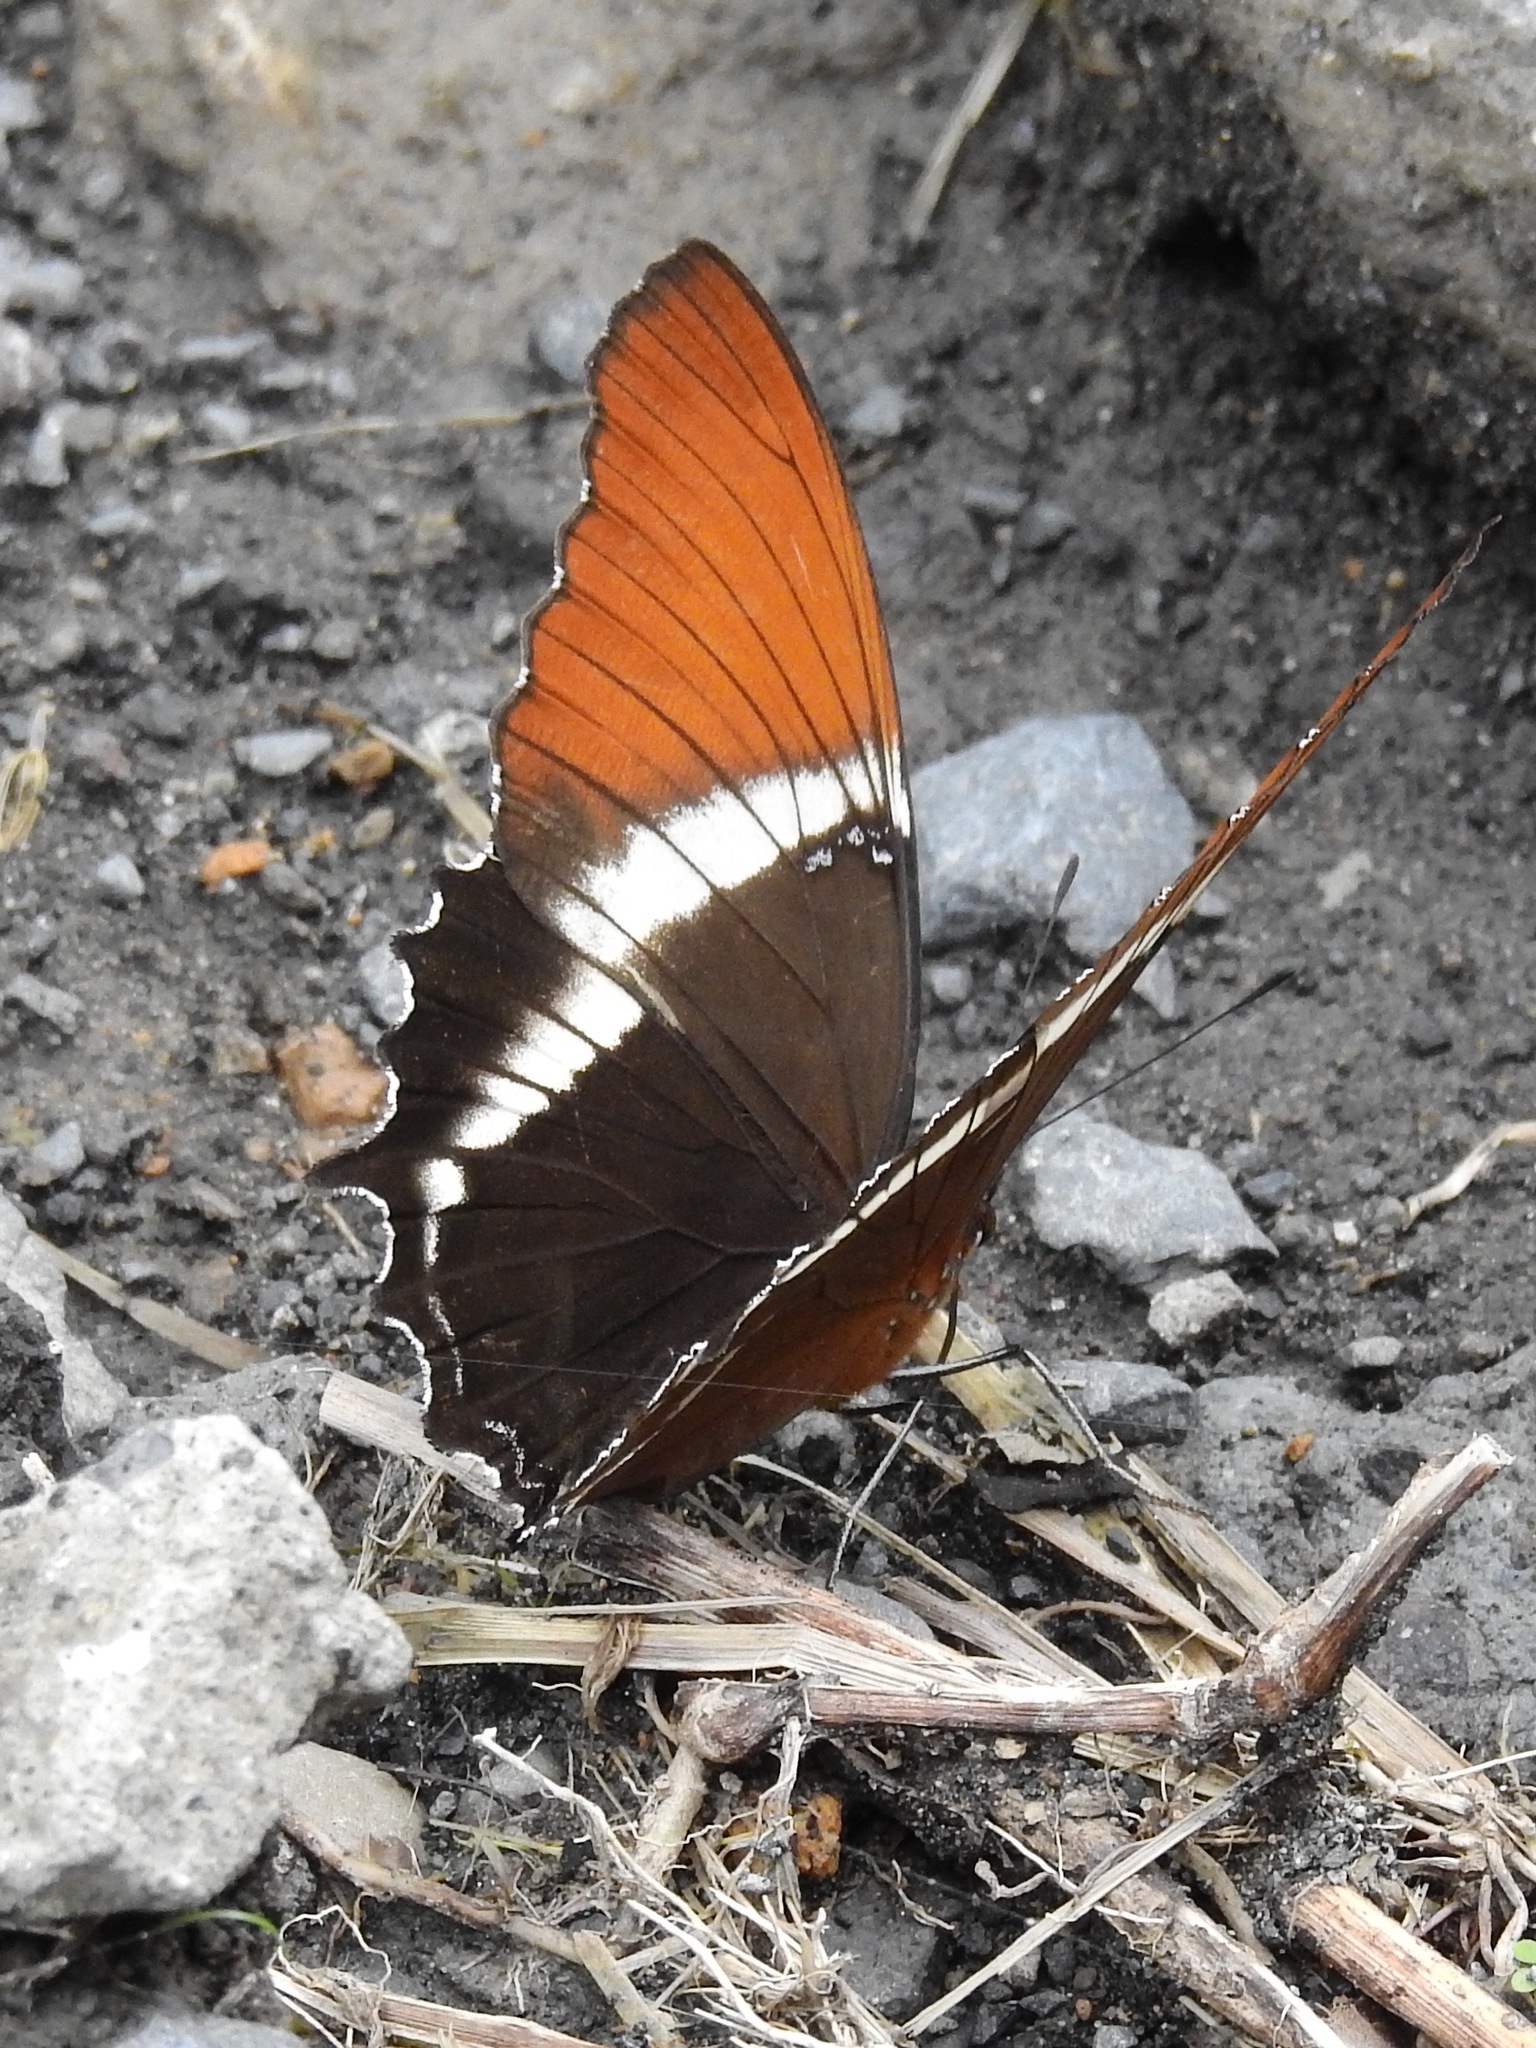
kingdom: Animalia
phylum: Arthropoda
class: Insecta
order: Lepidoptera
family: Nymphalidae
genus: Siproeta
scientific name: Siproeta epaphus
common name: Rusty-tipped page
